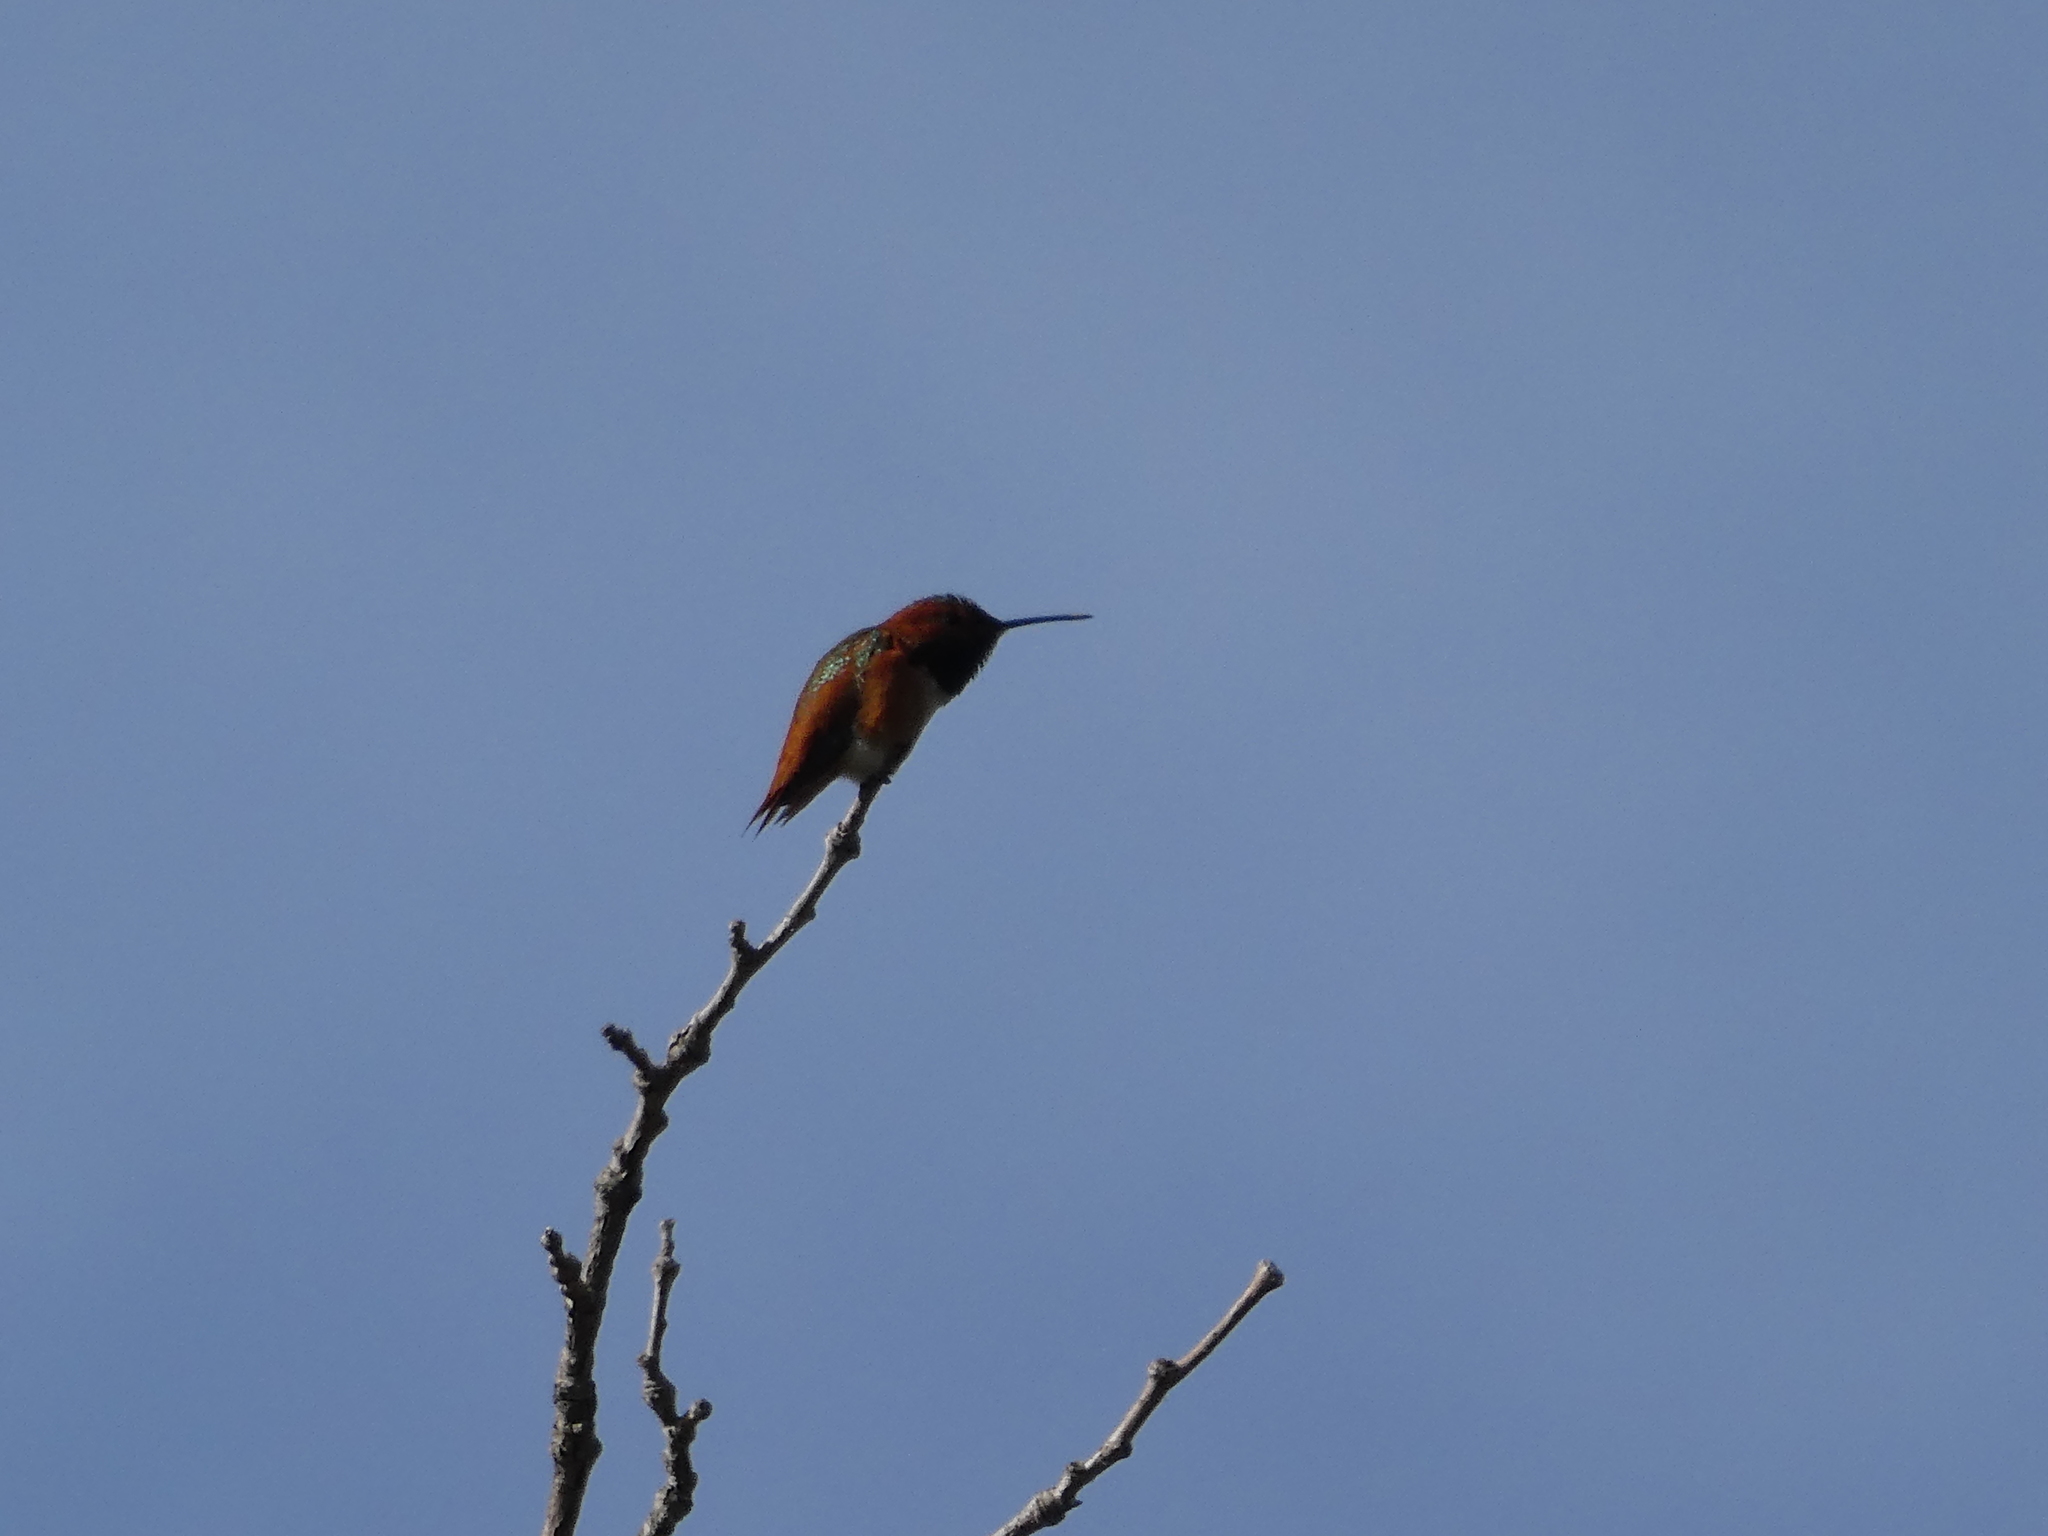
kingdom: Animalia
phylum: Chordata
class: Aves
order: Apodiformes
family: Trochilidae
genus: Selasphorus
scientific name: Selasphorus sasin
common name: Allen's hummingbird
